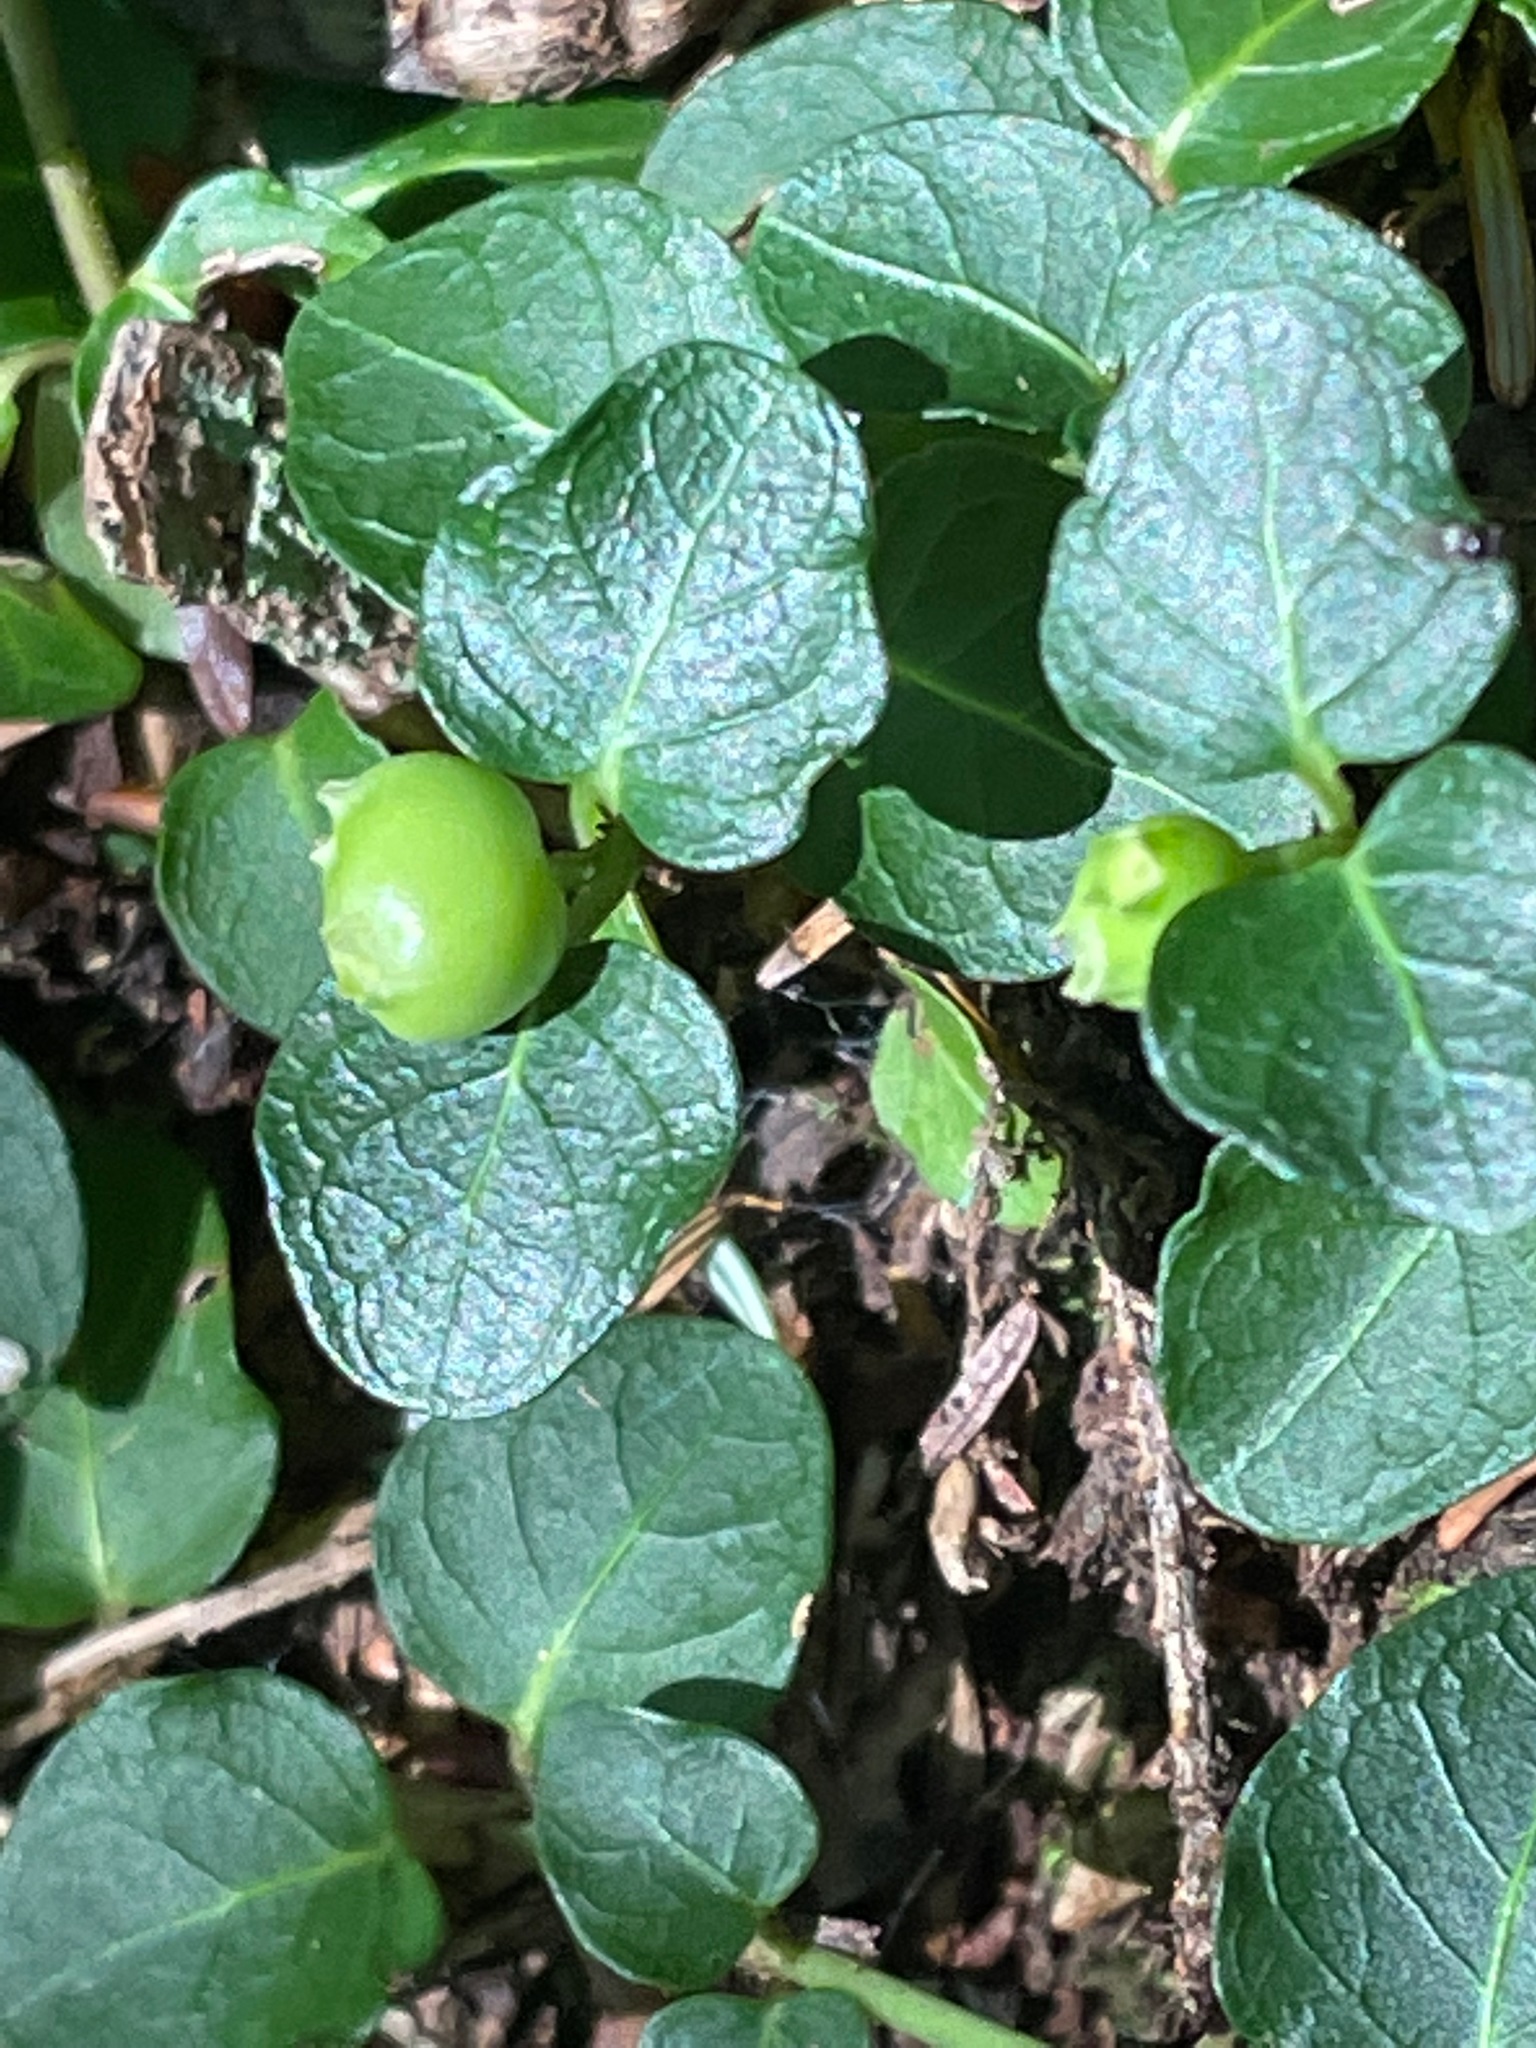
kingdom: Plantae
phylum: Tracheophyta
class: Magnoliopsida
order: Gentianales
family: Rubiaceae
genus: Mitchella
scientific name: Mitchella repens
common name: Partridge-berry
